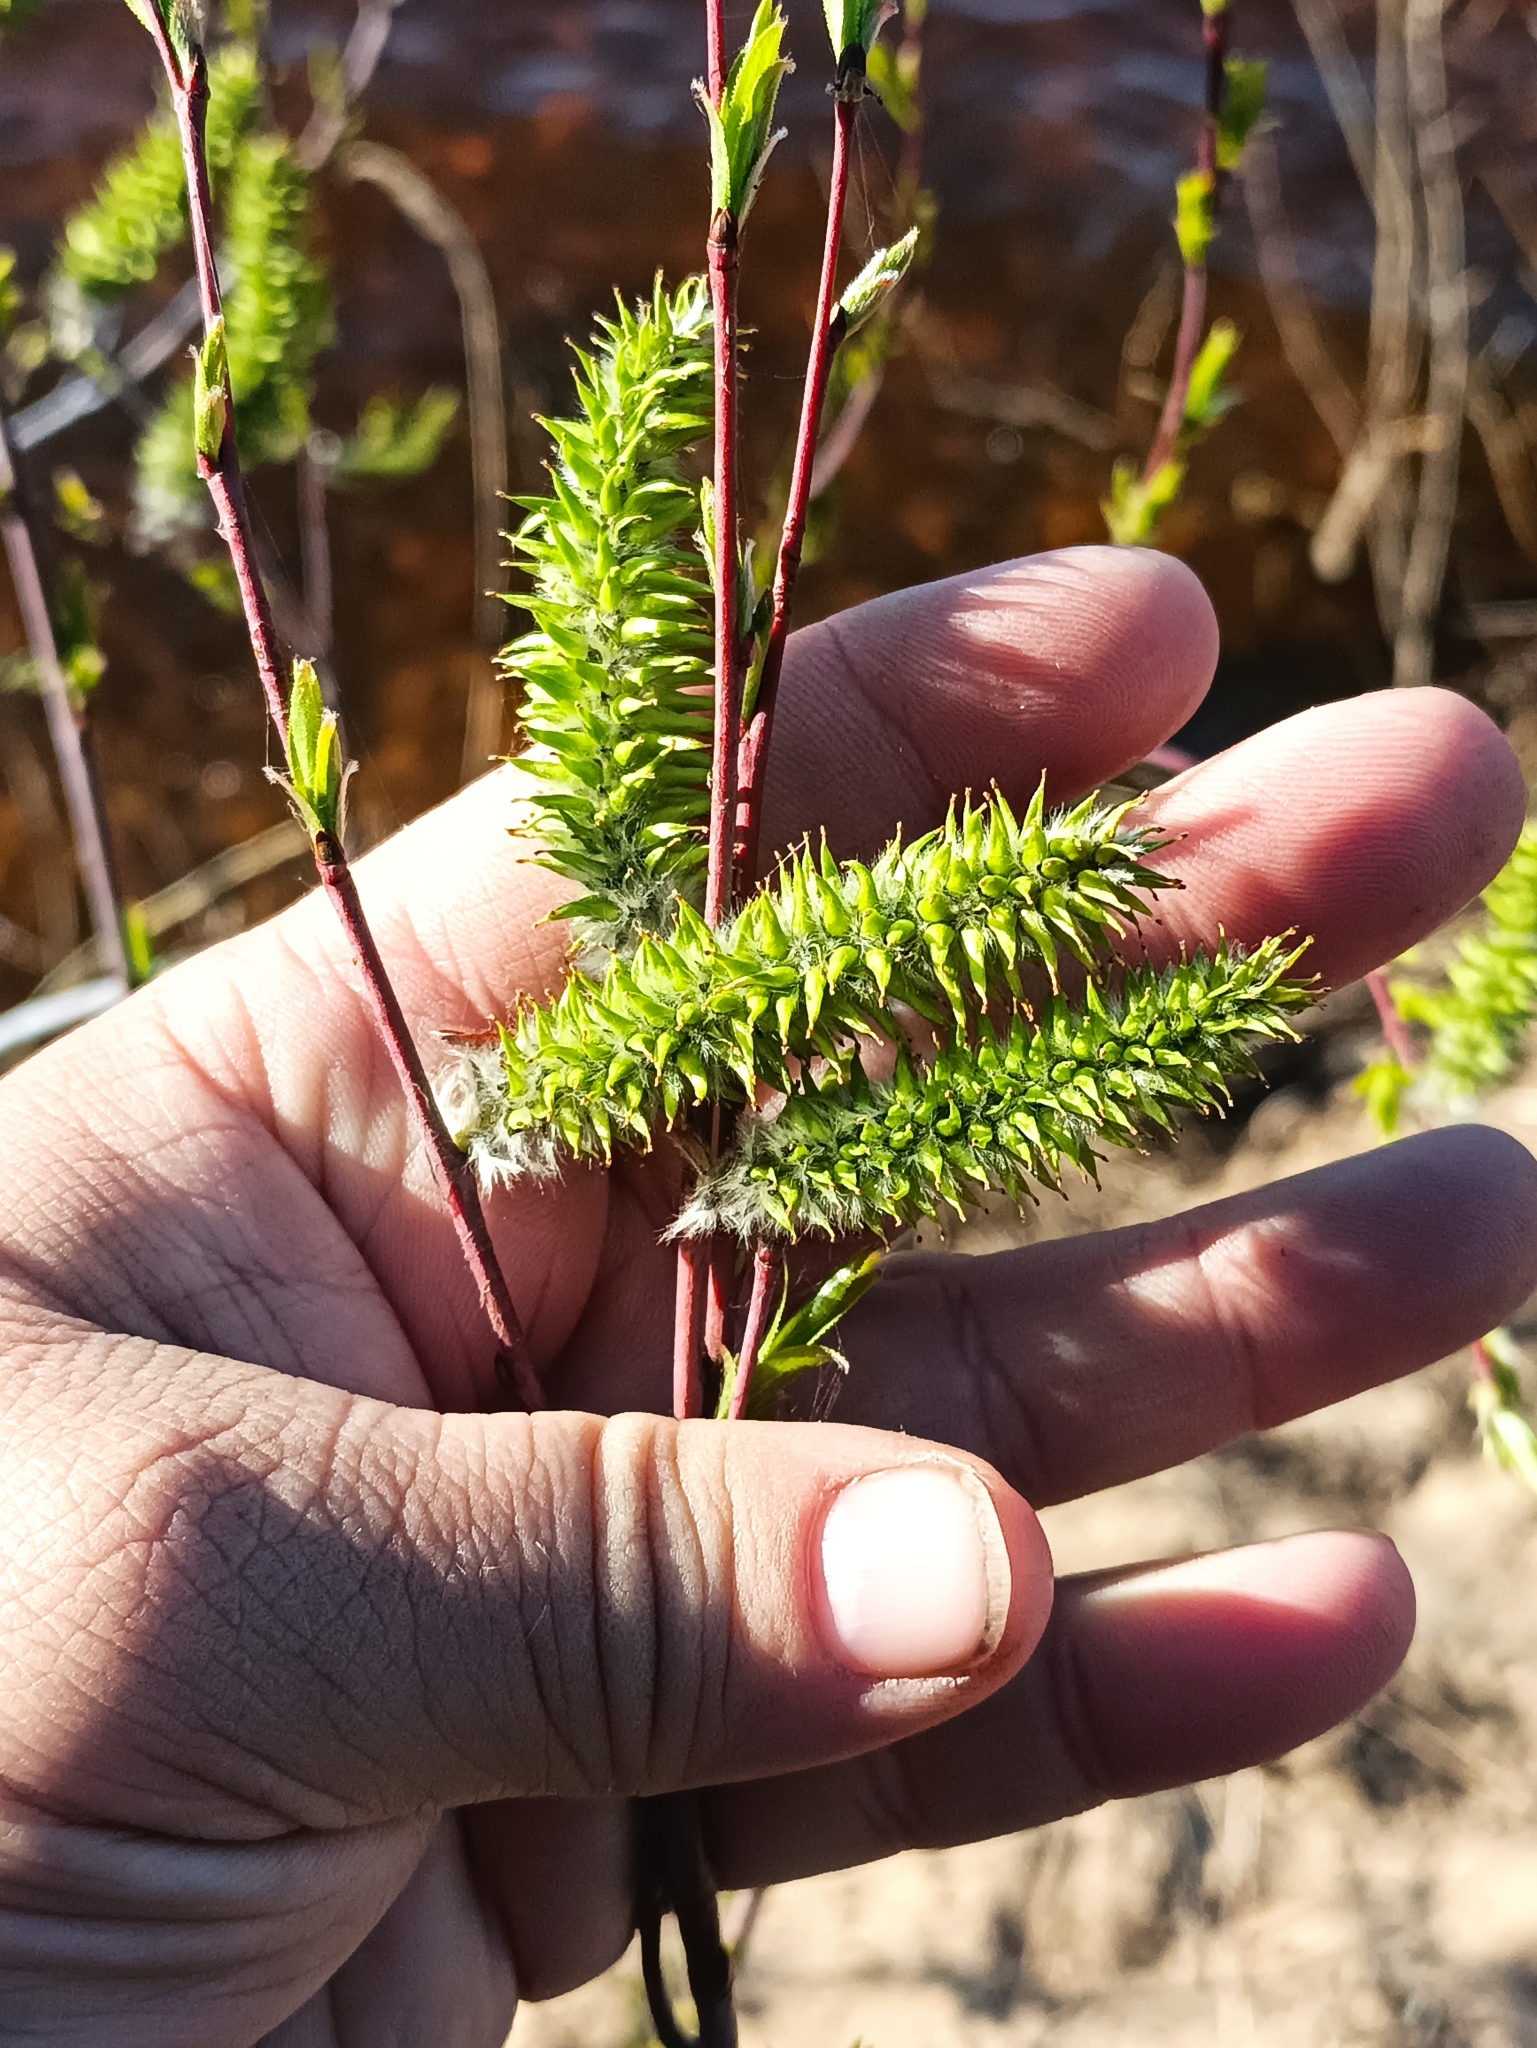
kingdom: Plantae
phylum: Tracheophyta
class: Magnoliopsida
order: Malpighiales
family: Salicaceae
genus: Salix
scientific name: Salix acutifolia
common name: Siberian violet-willow
